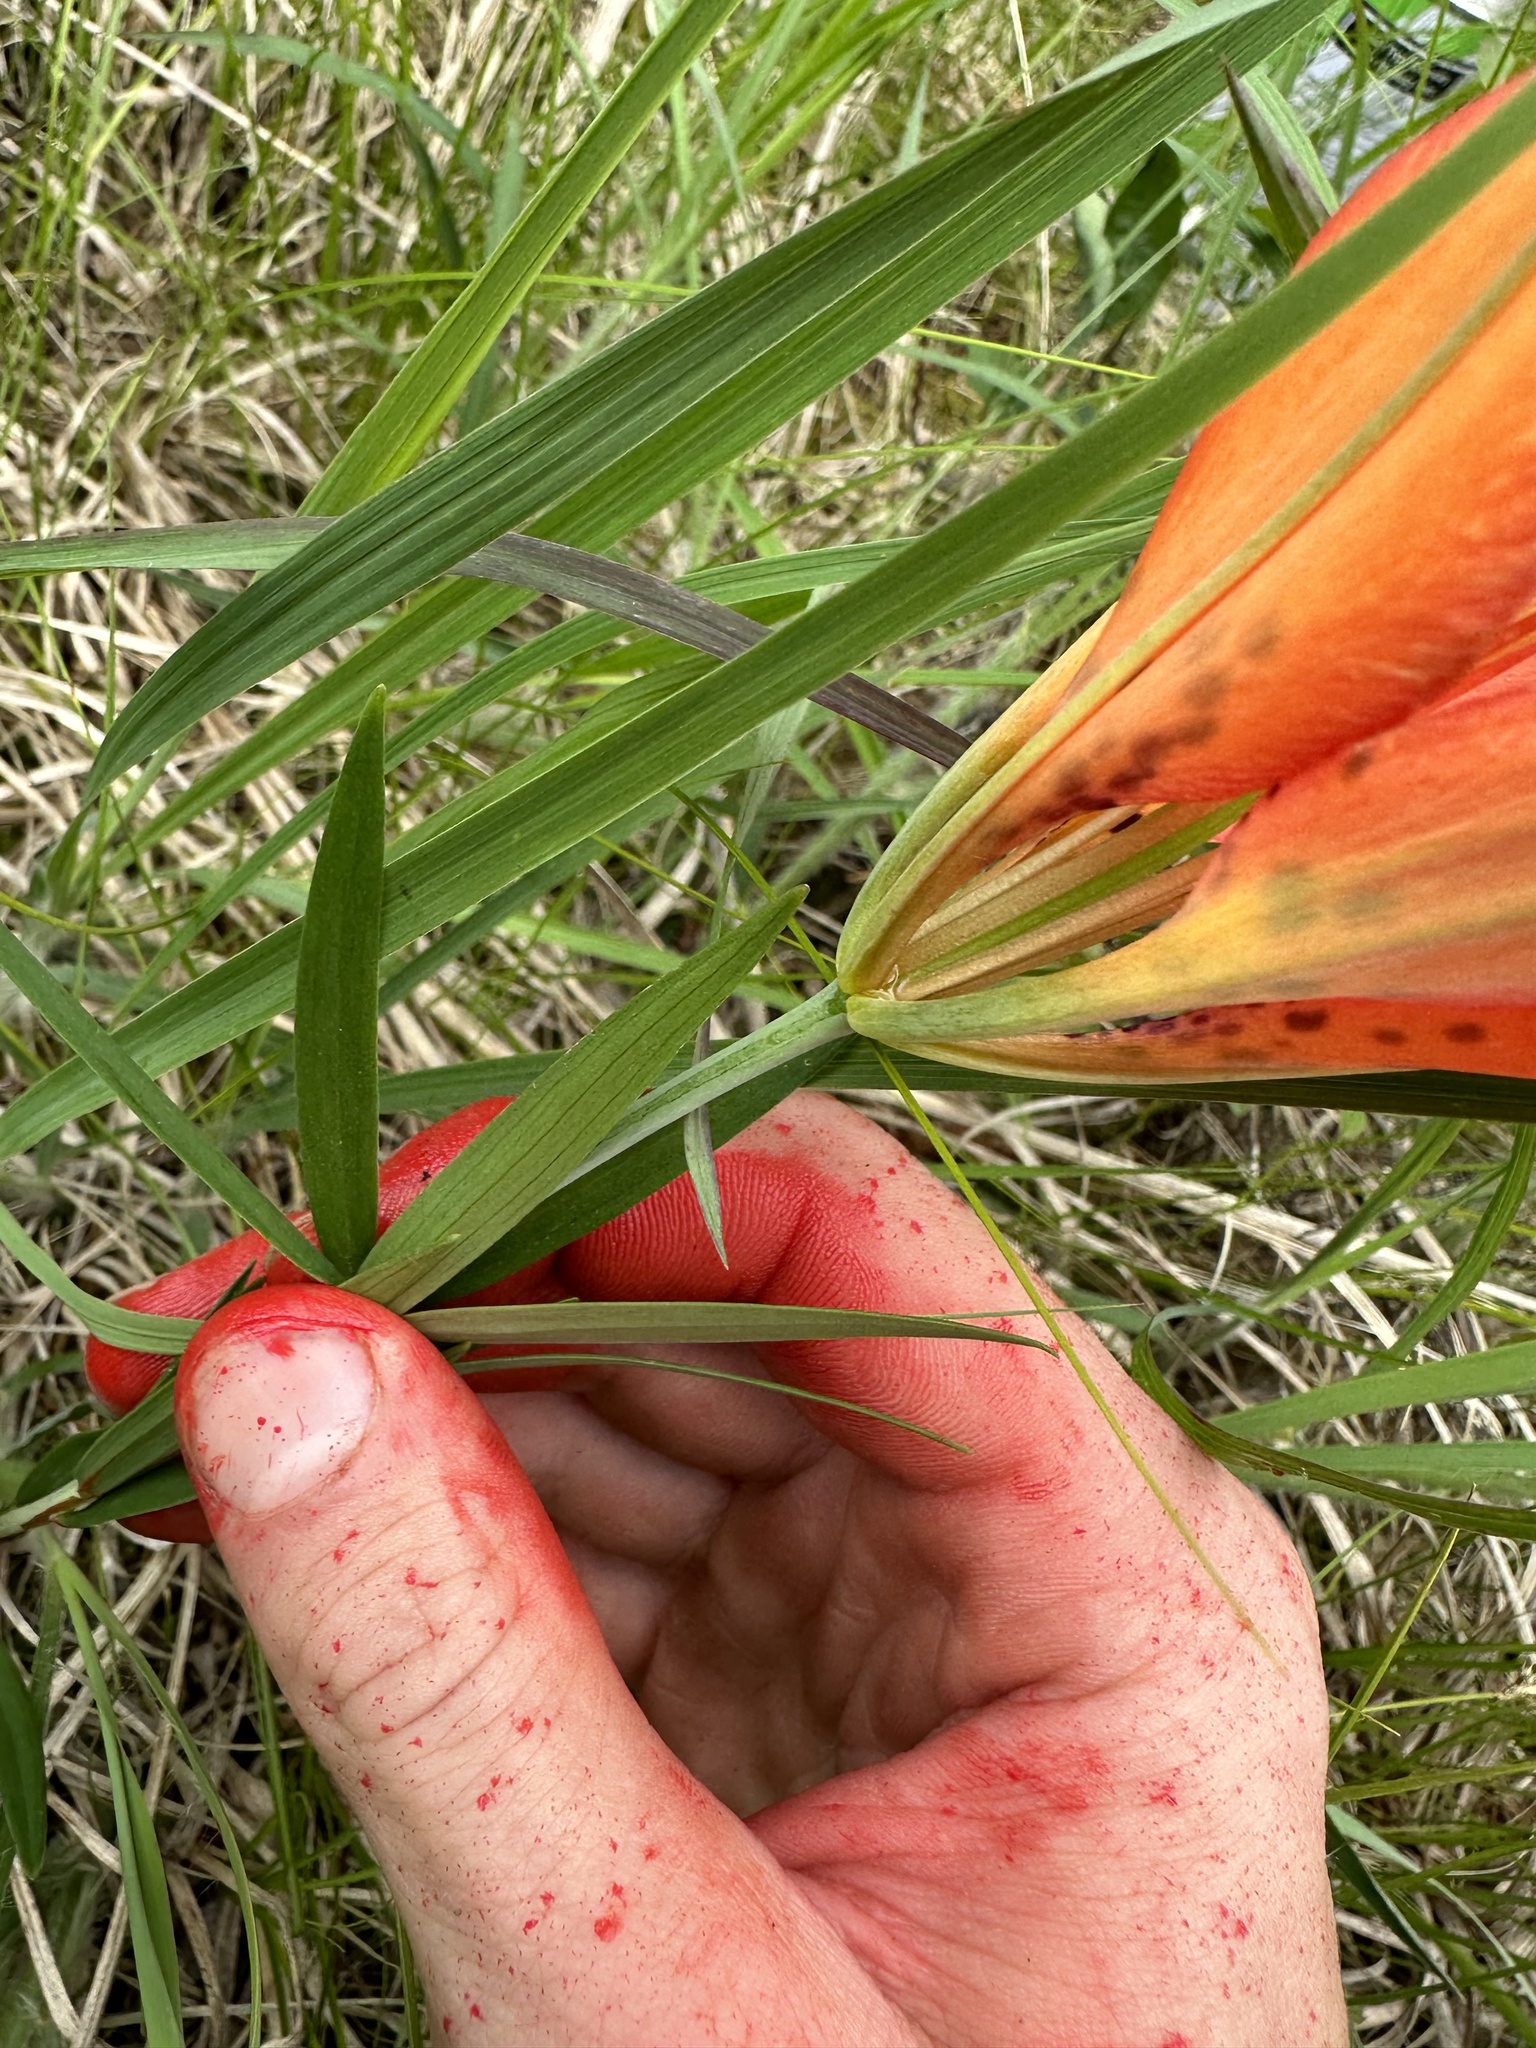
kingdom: Plantae
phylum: Tracheophyta
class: Liliopsida
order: Liliales
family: Liliaceae
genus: Lilium
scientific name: Lilium philadelphicum
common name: Red lily
